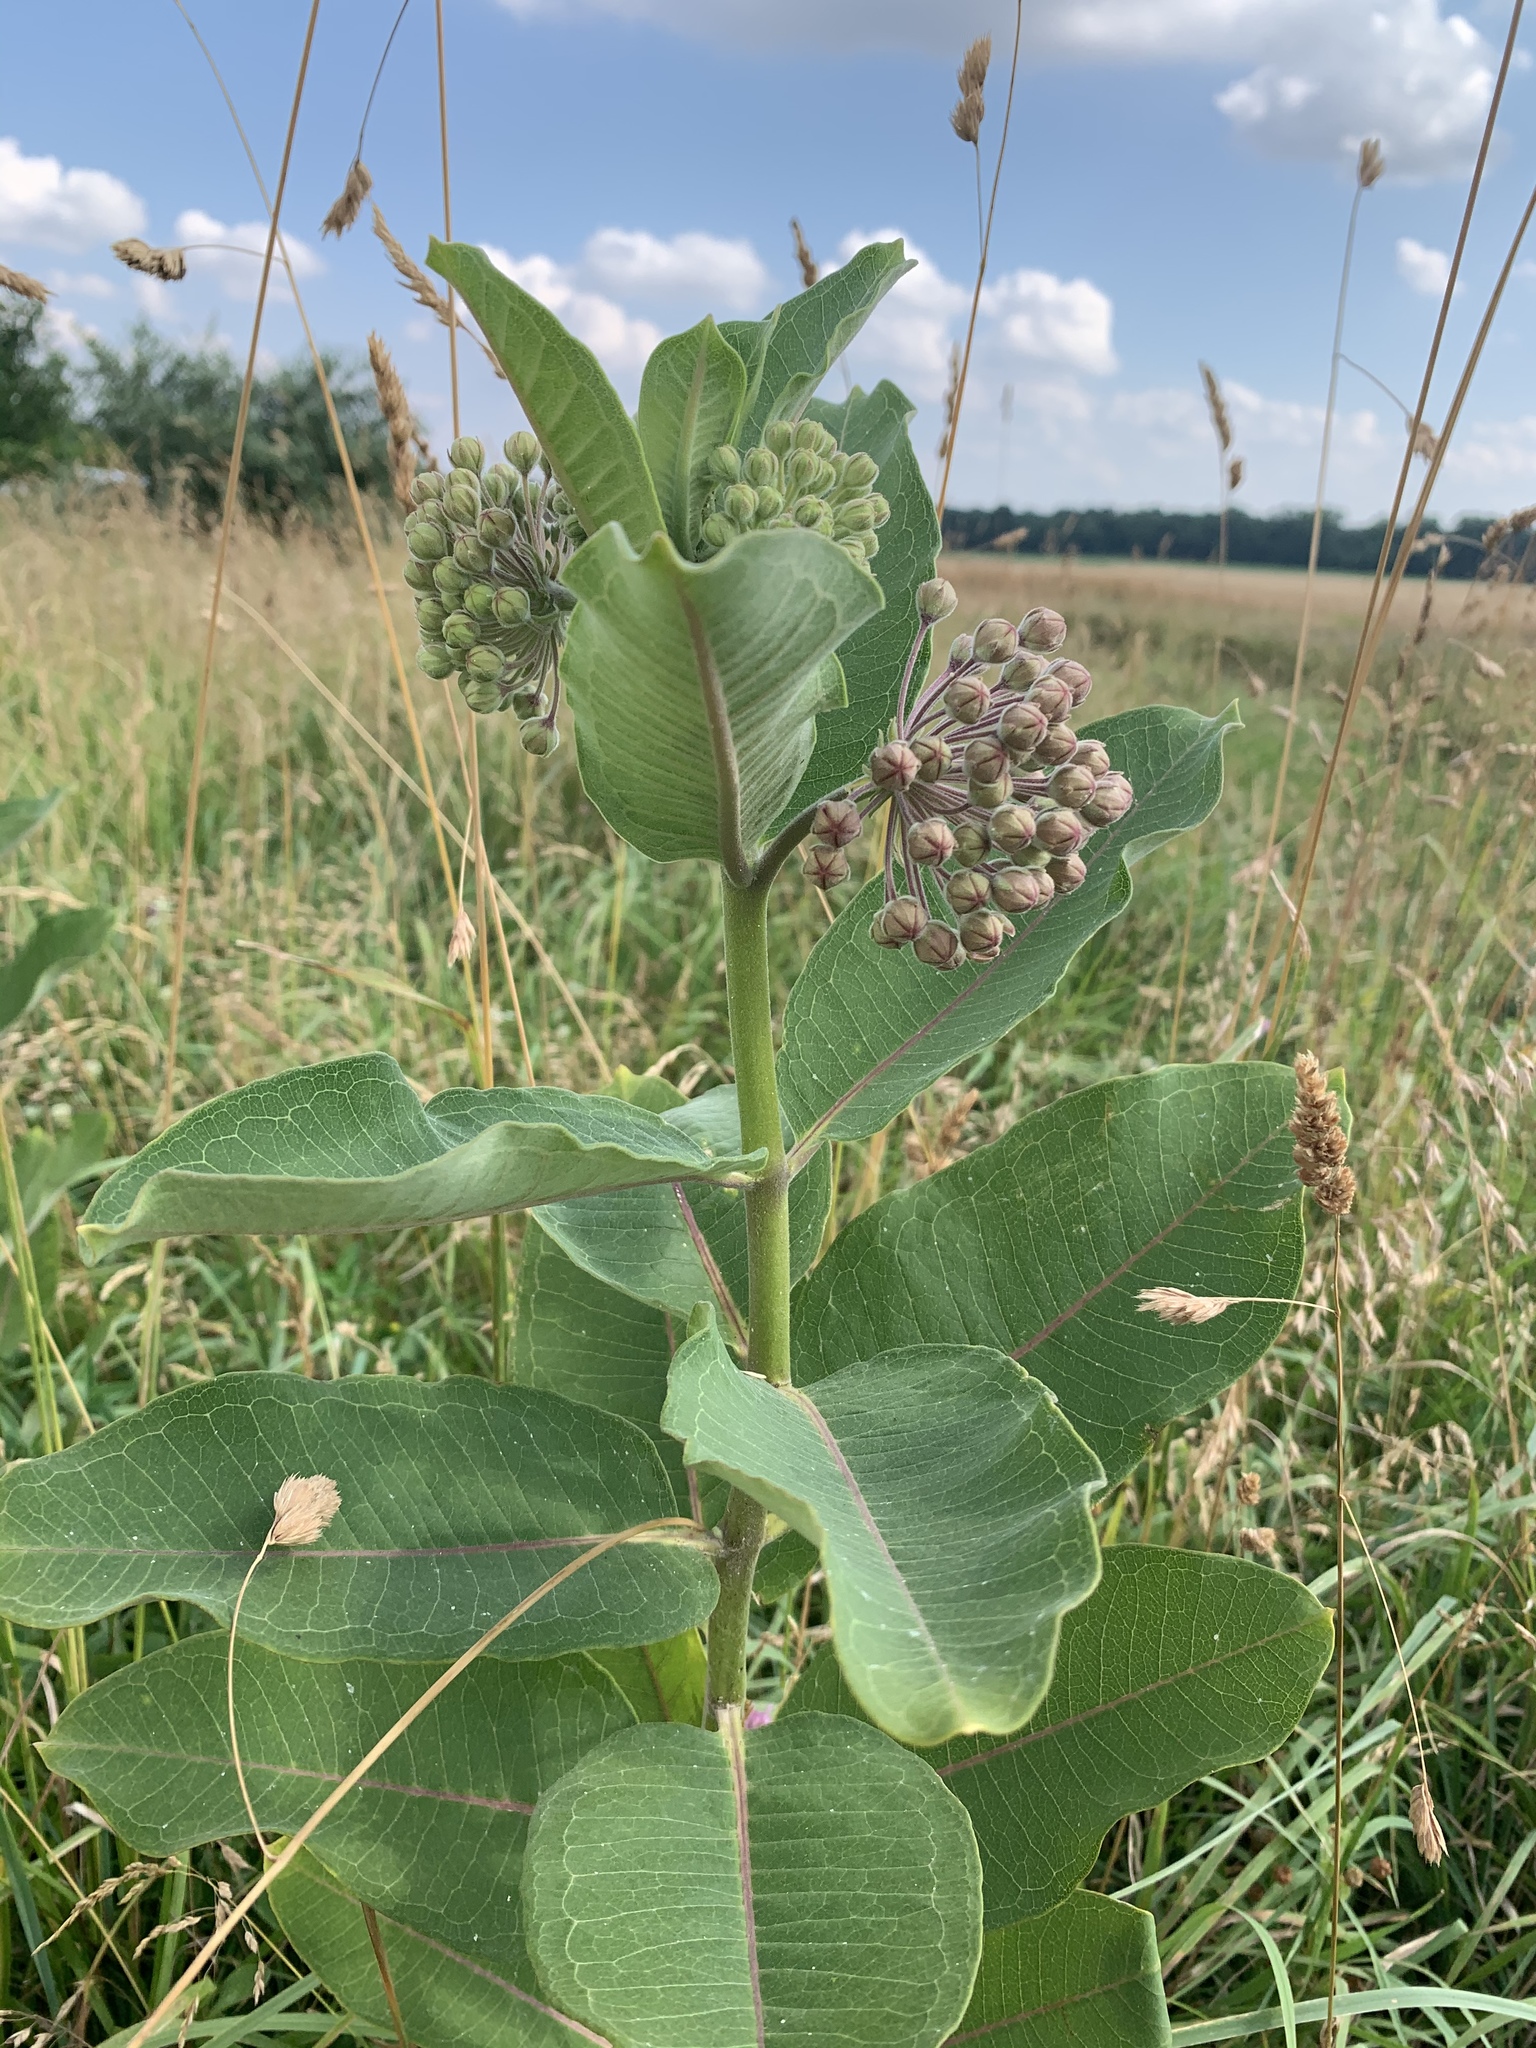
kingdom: Plantae
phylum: Tracheophyta
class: Magnoliopsida
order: Gentianales
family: Apocynaceae
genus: Asclepias
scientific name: Asclepias syriaca
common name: Common milkweed
